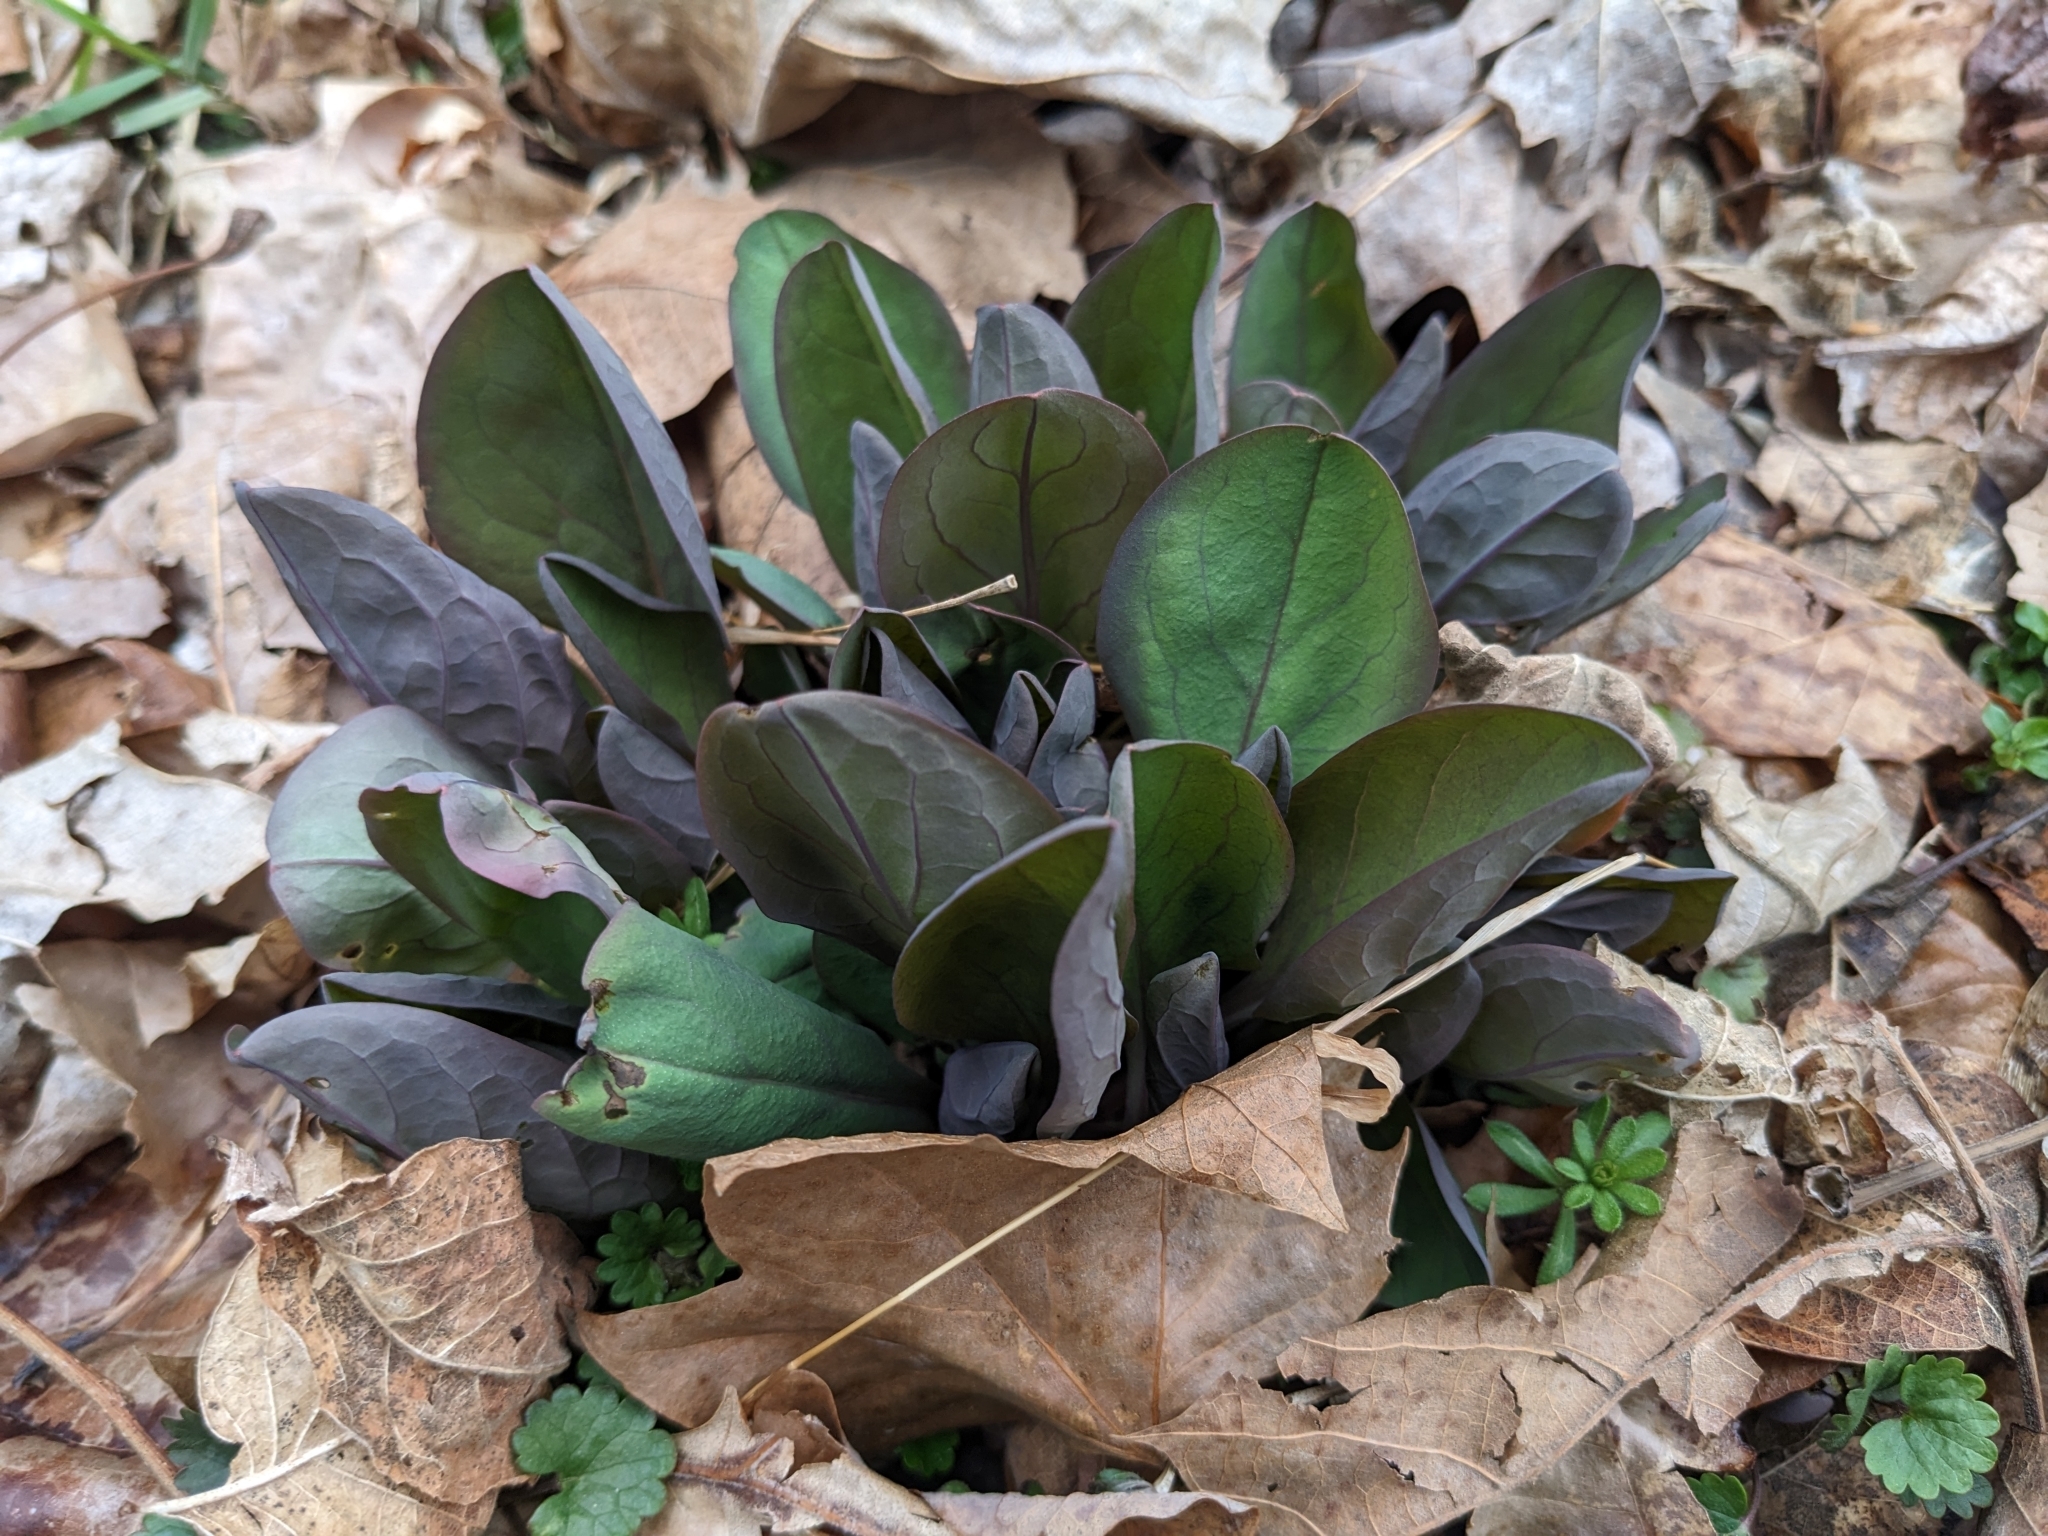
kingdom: Plantae
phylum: Tracheophyta
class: Magnoliopsida
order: Boraginales
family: Boraginaceae
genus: Mertensia
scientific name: Mertensia virginica
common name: Virginia bluebells
